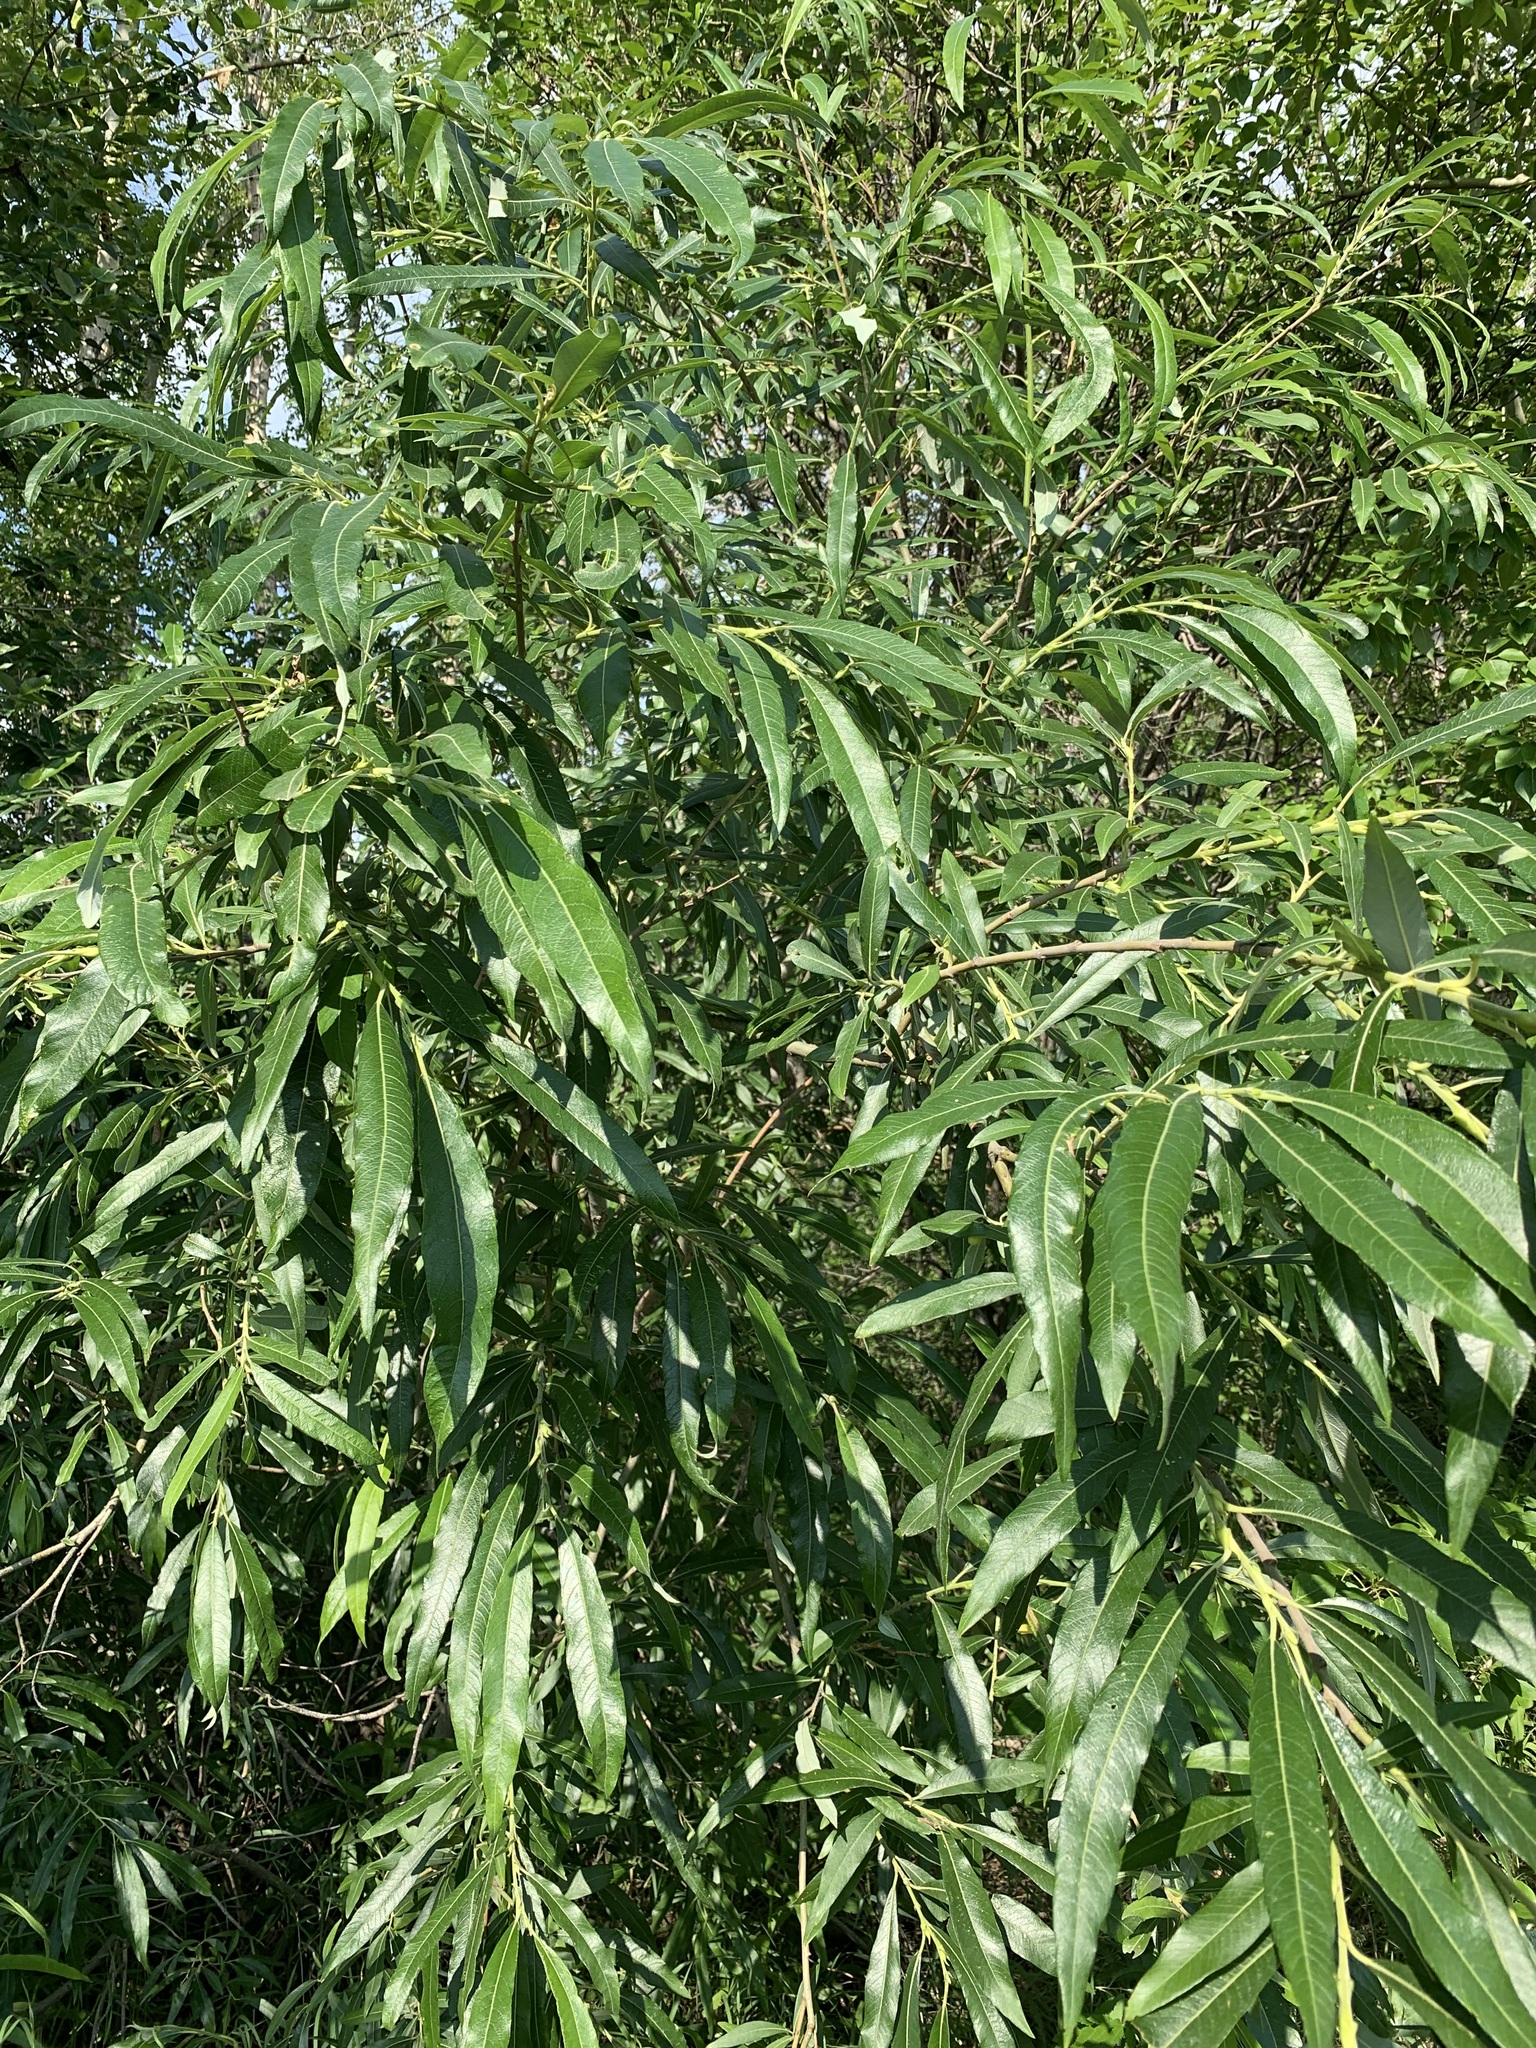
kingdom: Plantae
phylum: Tracheophyta
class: Magnoliopsida
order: Malpighiales
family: Salicaceae
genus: Salix
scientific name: Salix gmelinii
